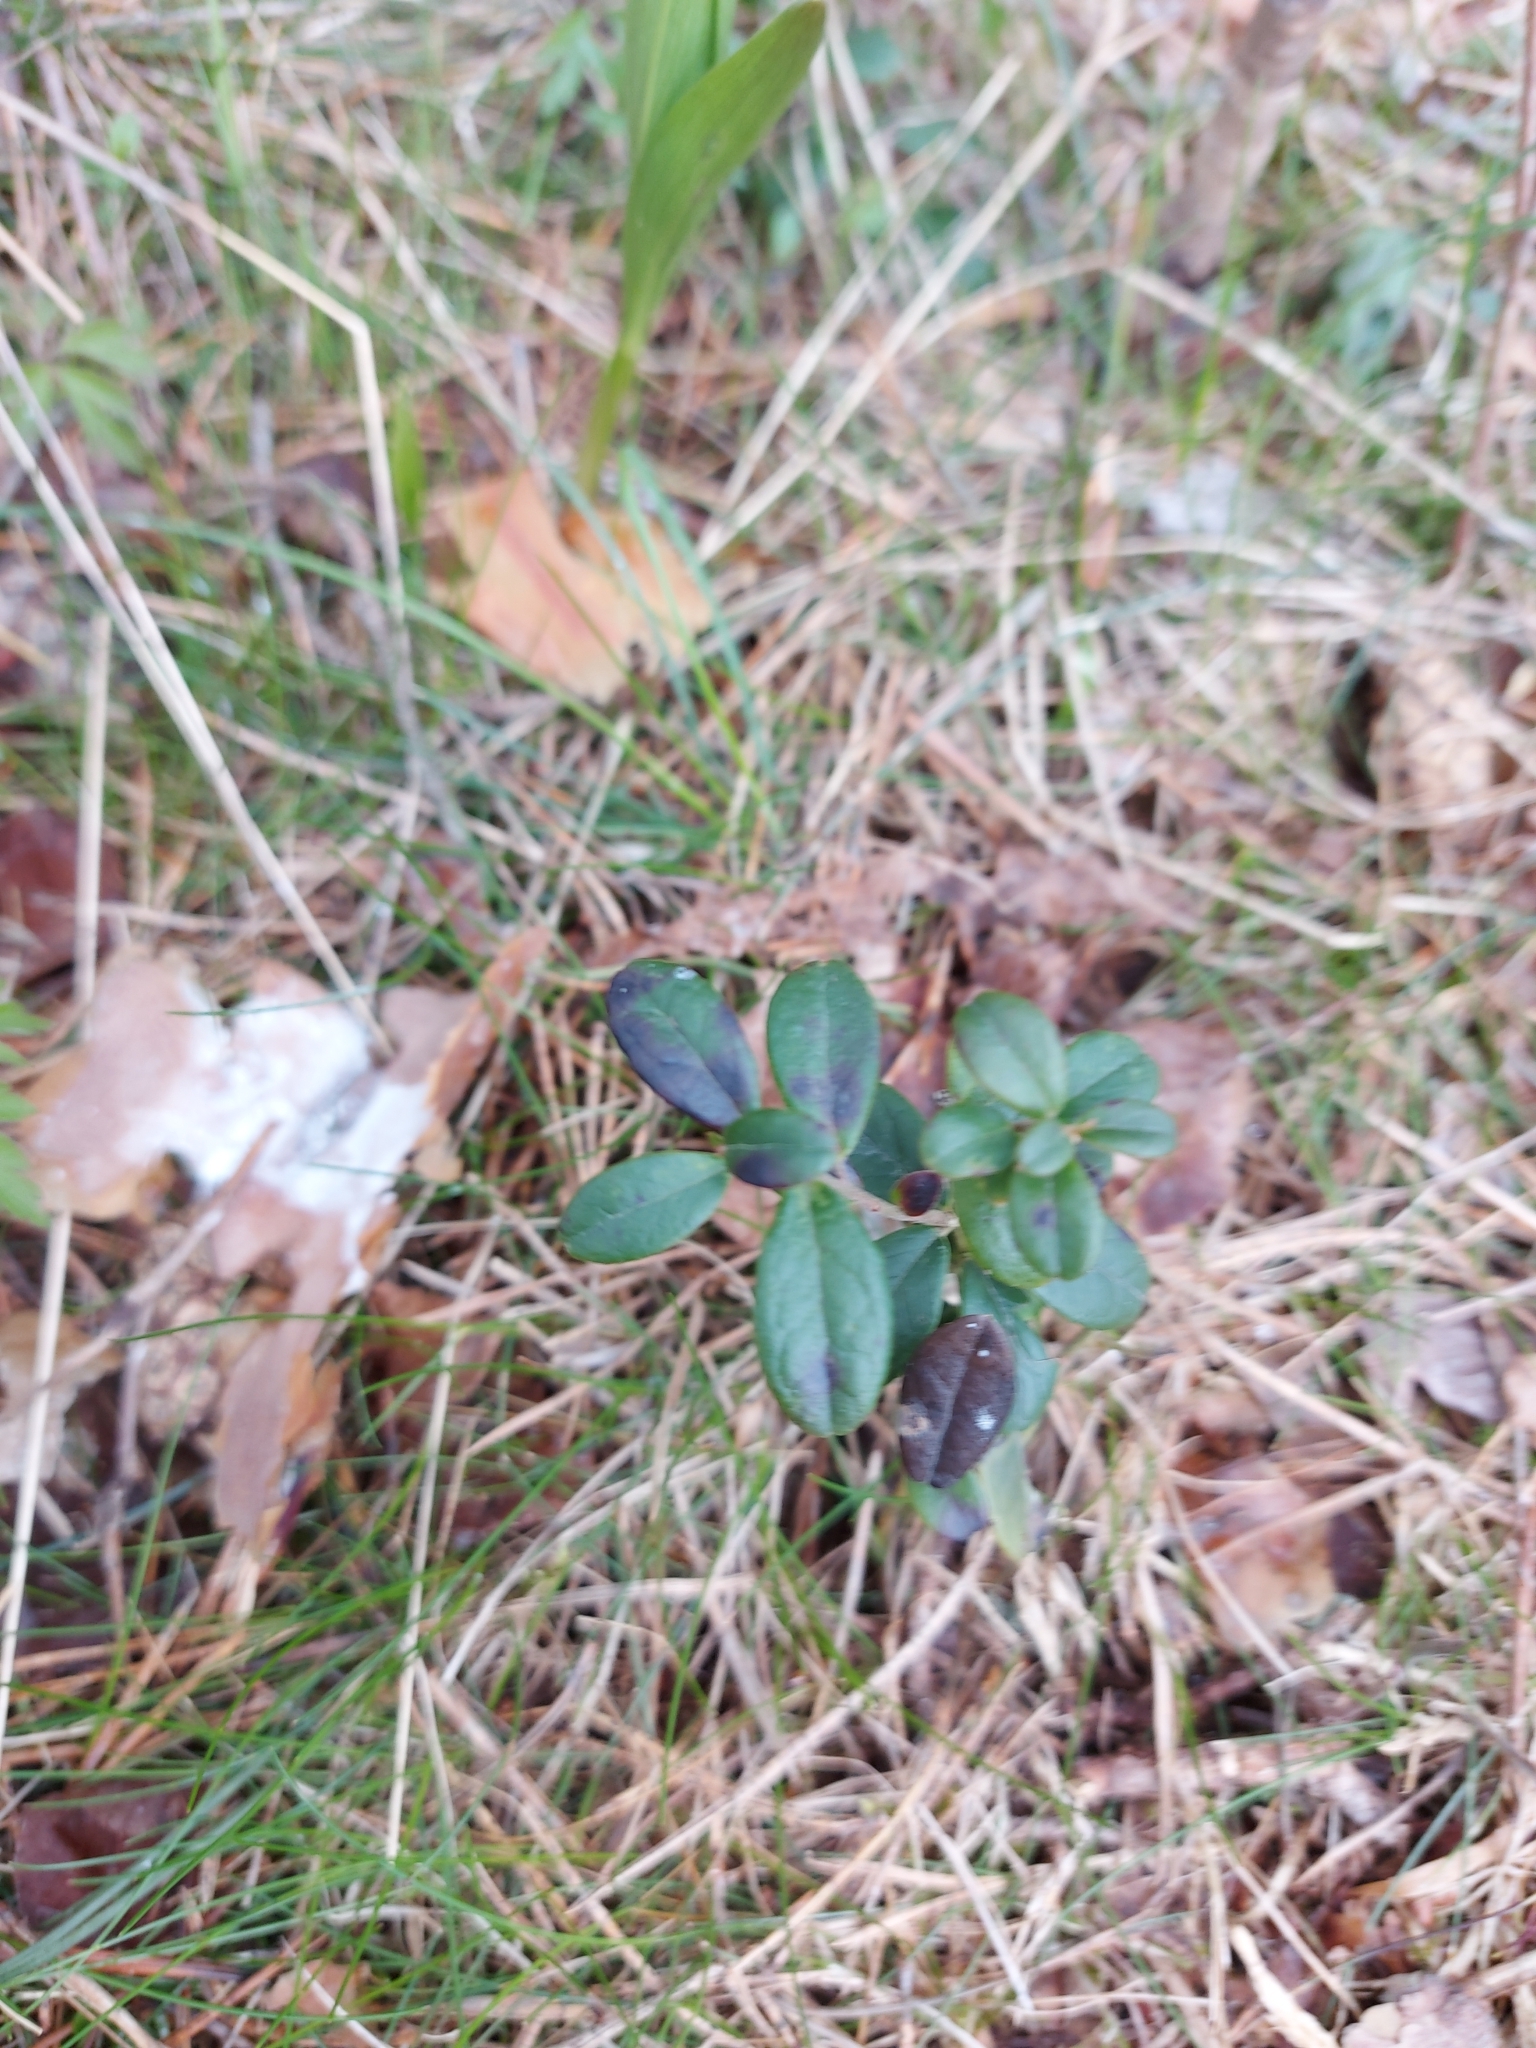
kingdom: Plantae
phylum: Tracheophyta
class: Magnoliopsida
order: Ericales
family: Ericaceae
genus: Vaccinium
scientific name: Vaccinium vitis-idaea
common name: Cowberry
